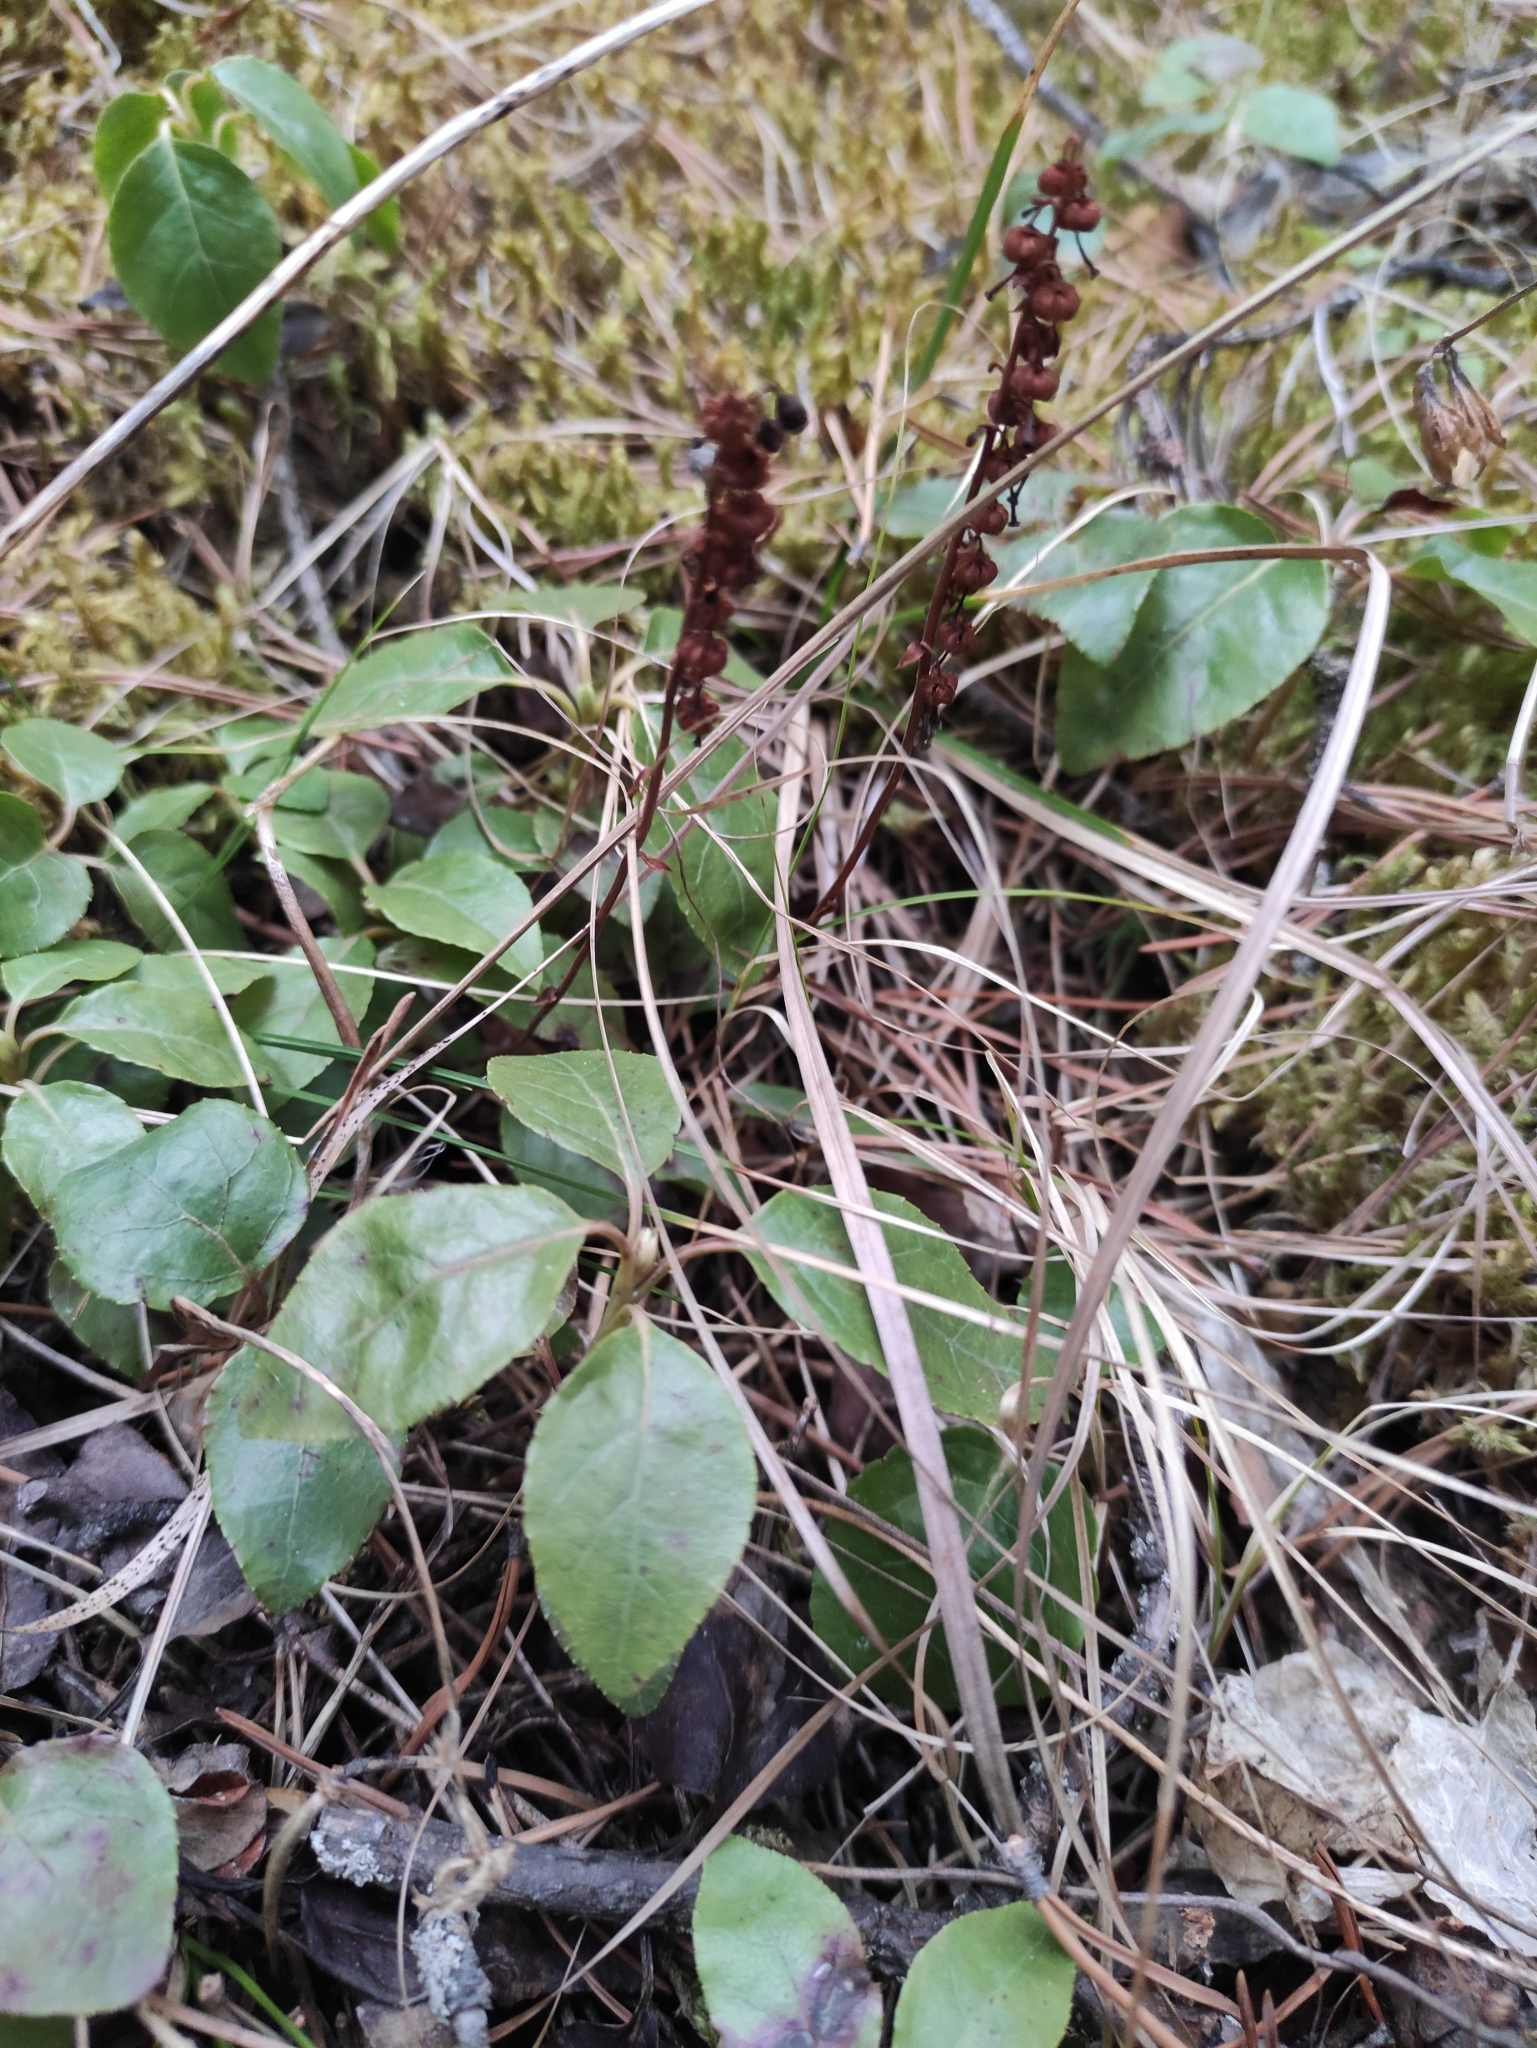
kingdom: Plantae
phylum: Tracheophyta
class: Magnoliopsida
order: Ericales
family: Ericaceae
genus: Orthilia
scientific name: Orthilia secunda
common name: One-sided orthilia
